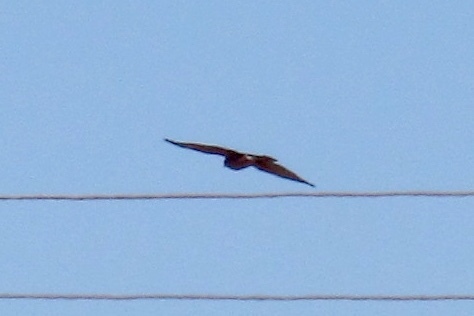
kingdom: Animalia
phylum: Chordata
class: Aves
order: Accipitriformes
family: Accipitridae
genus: Accipiter
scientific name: Accipiter cooperii
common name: Cooper's hawk
